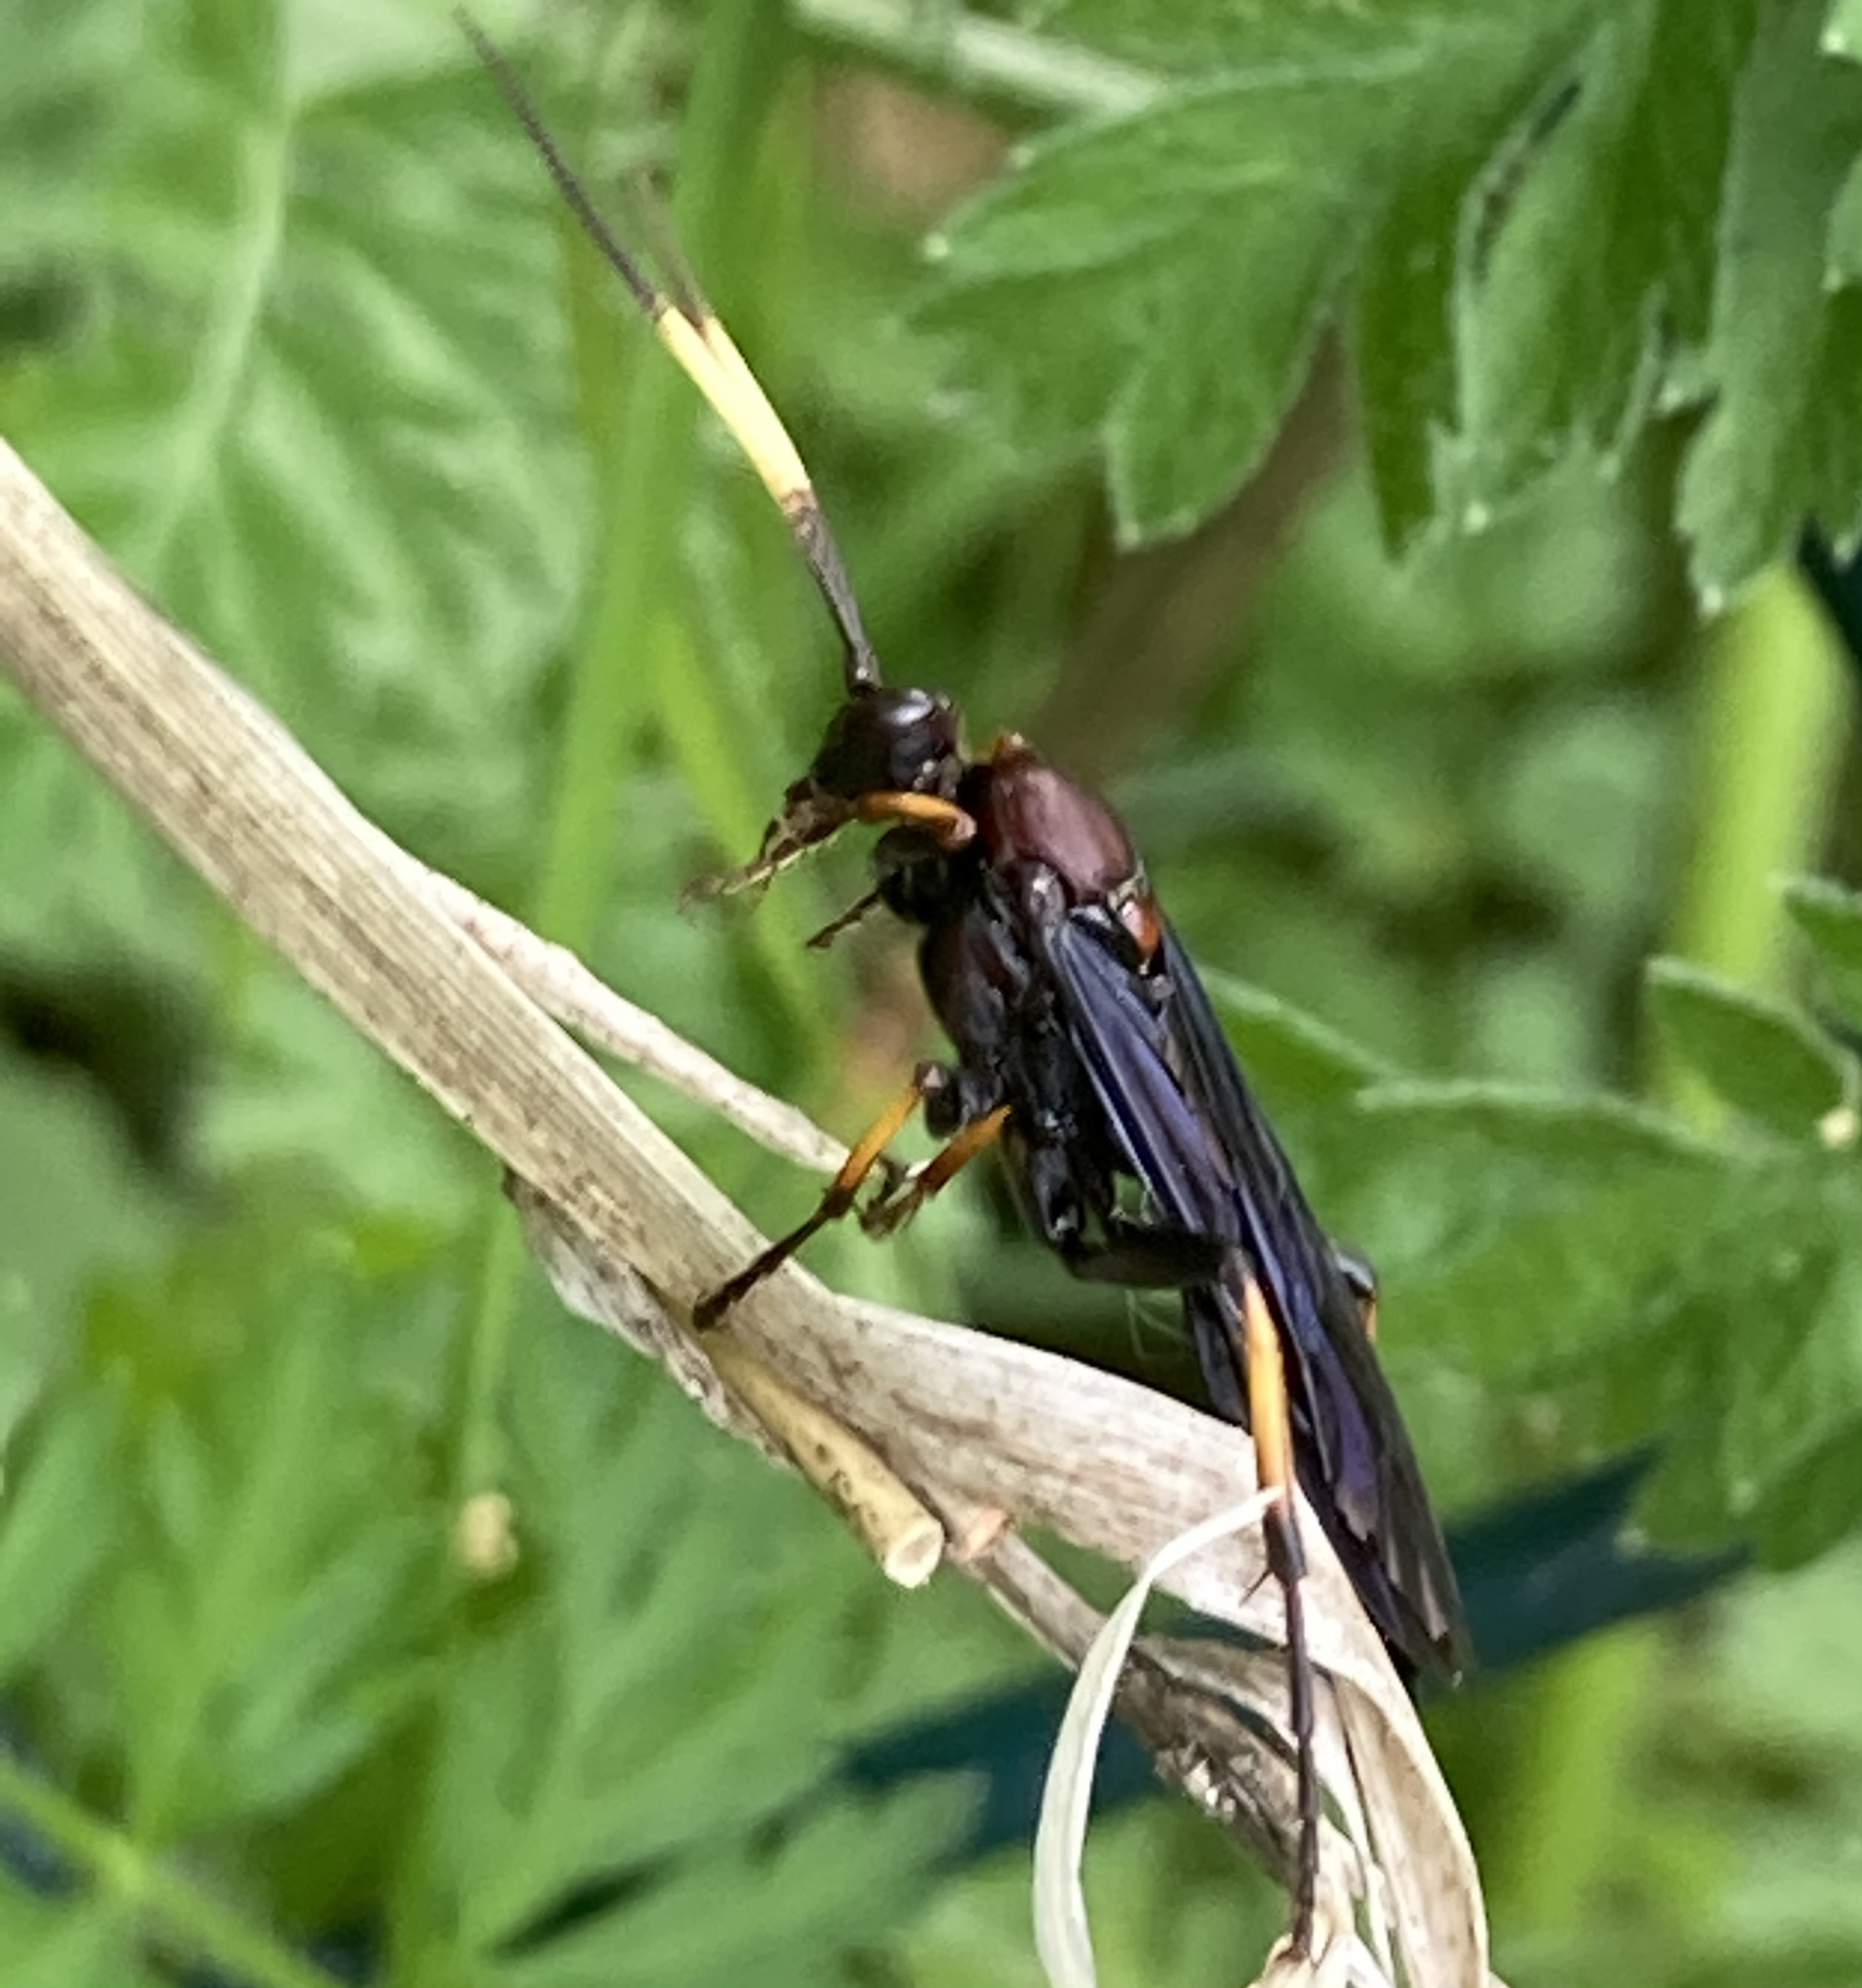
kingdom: Animalia
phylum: Arthropoda
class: Insecta
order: Hymenoptera
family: Ichneumonidae
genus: Ichneumon
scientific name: Ichneumon centrator
